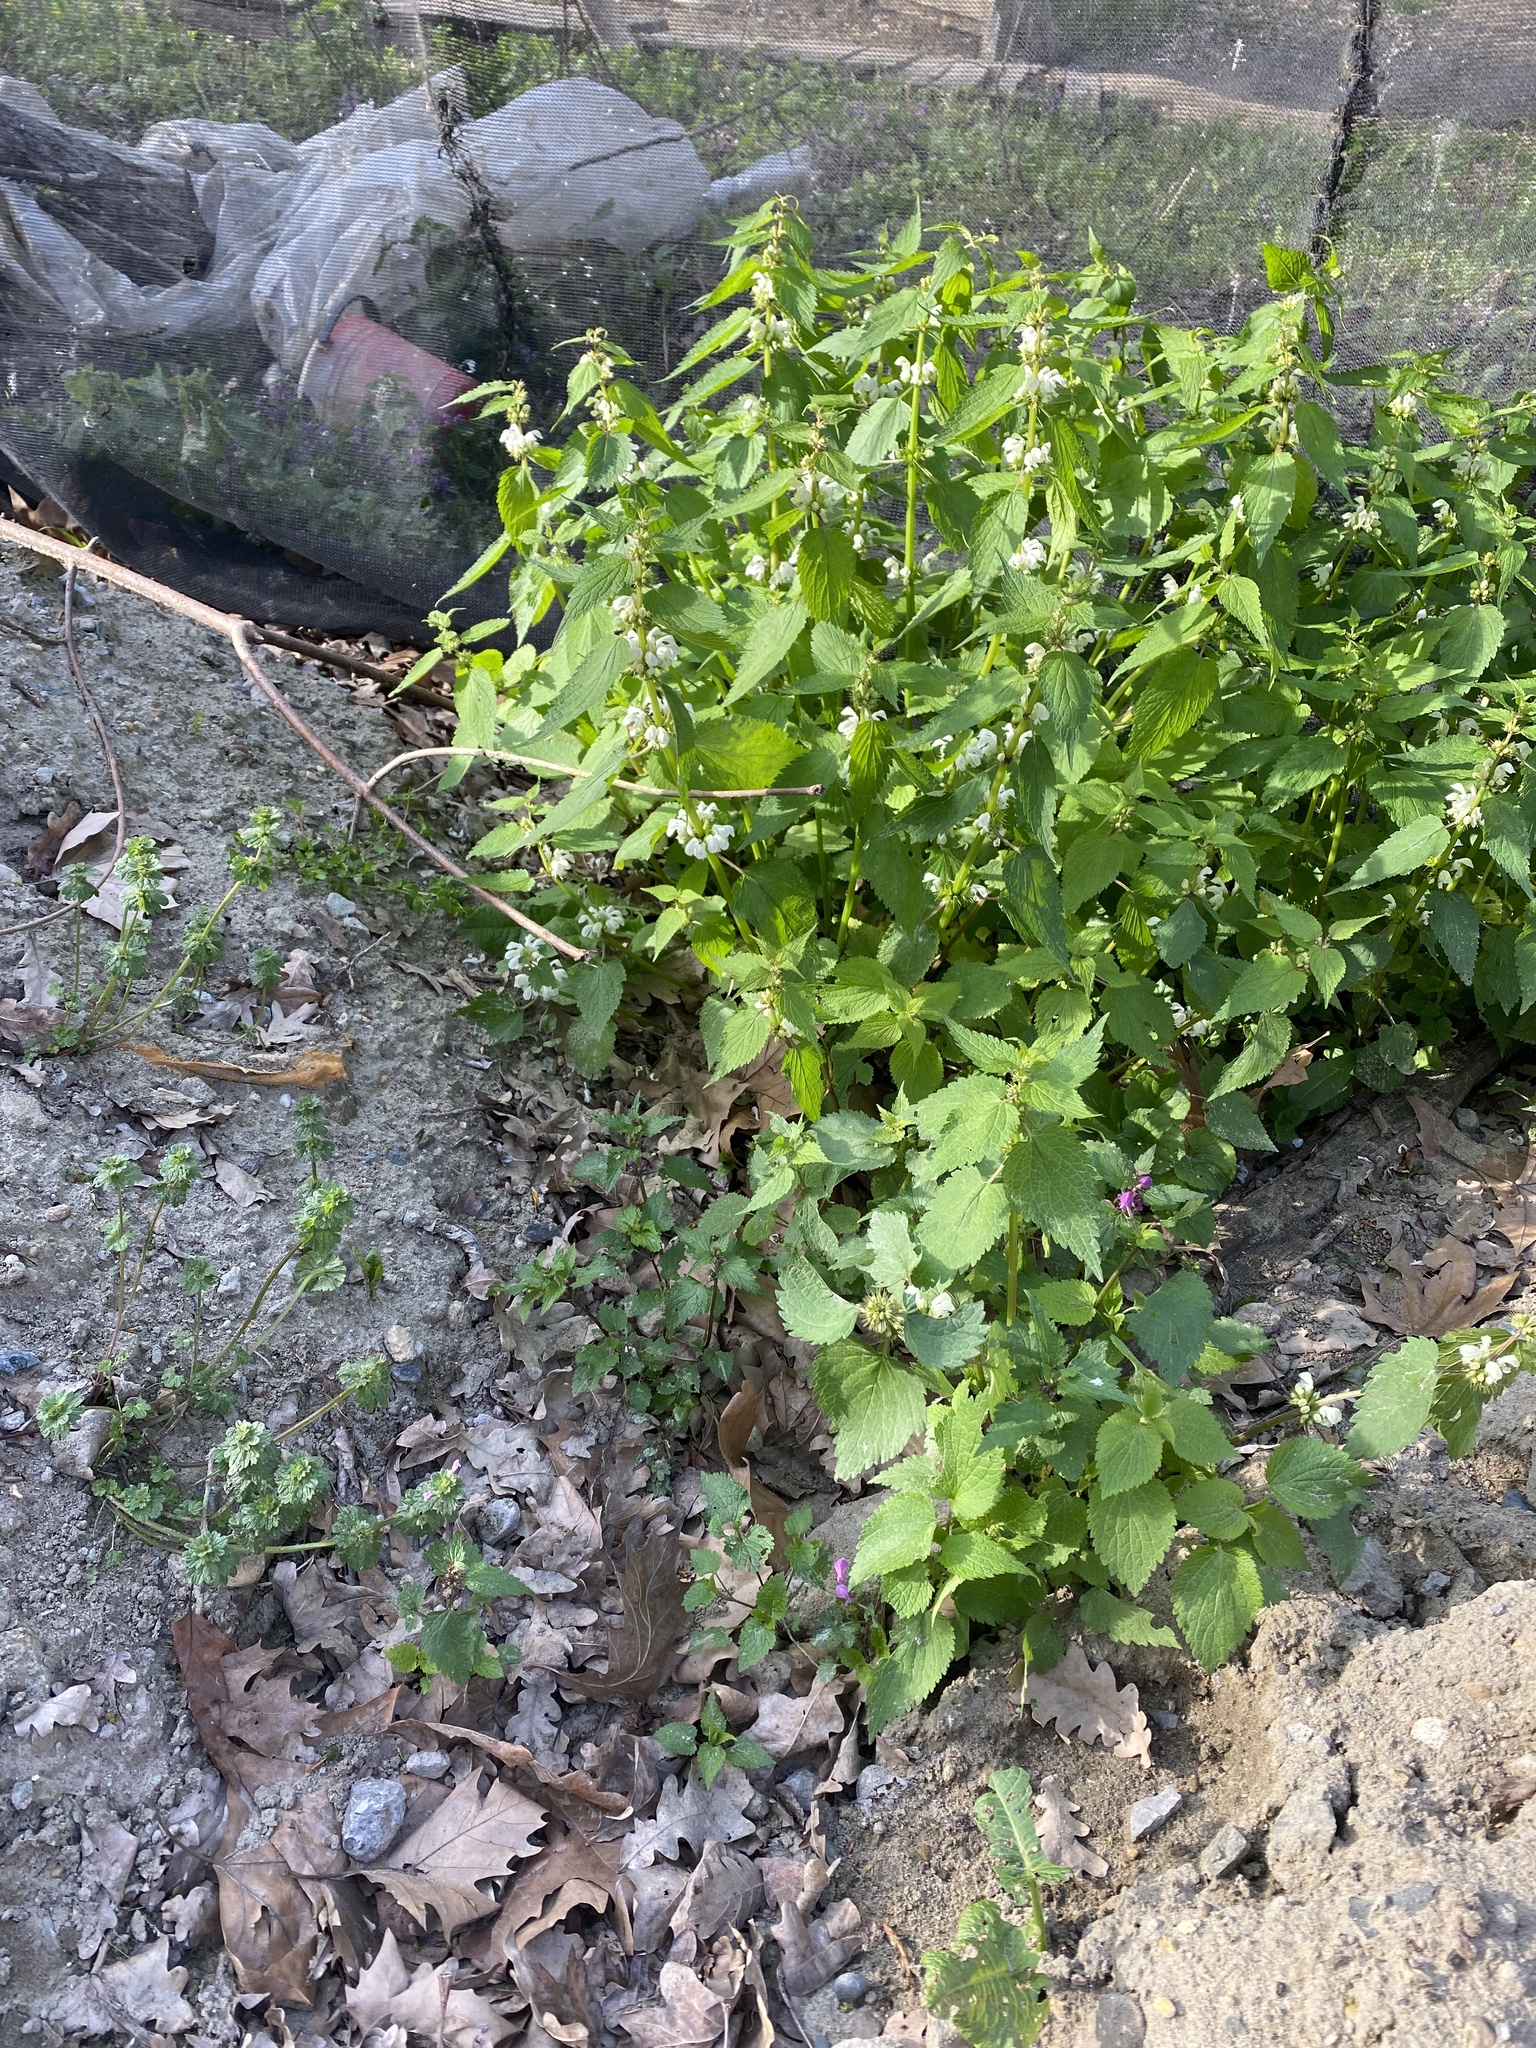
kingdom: Plantae
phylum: Tracheophyta
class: Magnoliopsida
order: Lamiales
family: Lamiaceae
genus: Lamium
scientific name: Lamium album
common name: White dead-nettle
